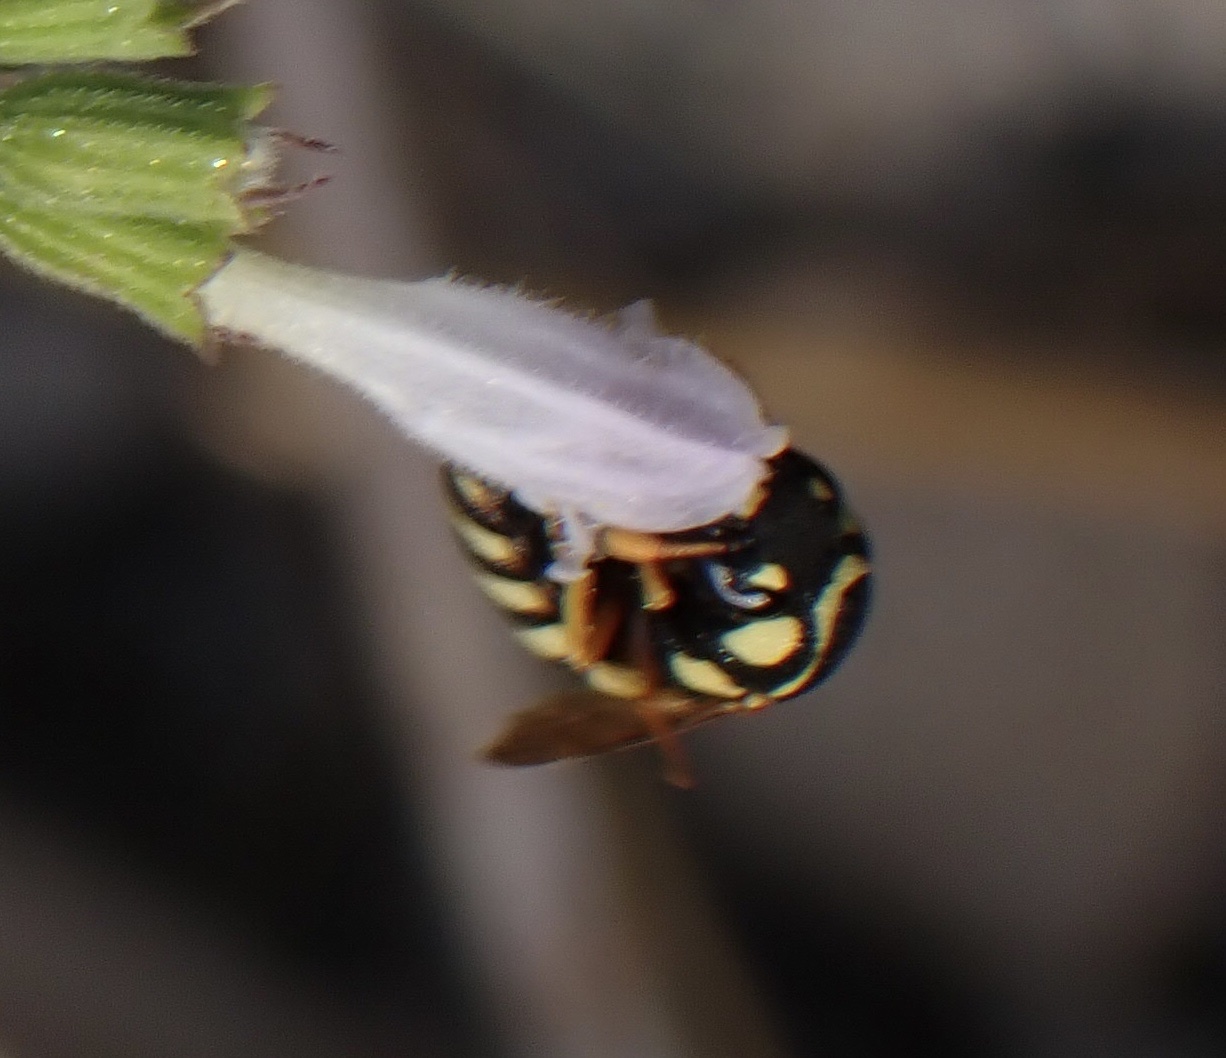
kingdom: Animalia
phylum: Arthropoda
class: Insecta
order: Hymenoptera
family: Masaridae
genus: Celonites
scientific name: Celonites abbreviatus
